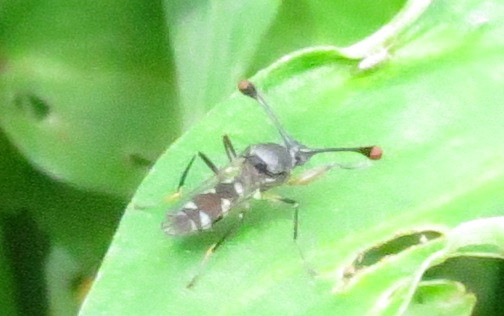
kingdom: Animalia
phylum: Arthropoda
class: Insecta
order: Diptera
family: Diopsidae
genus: Diasemopsis
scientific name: Diasemopsis aethiopica
